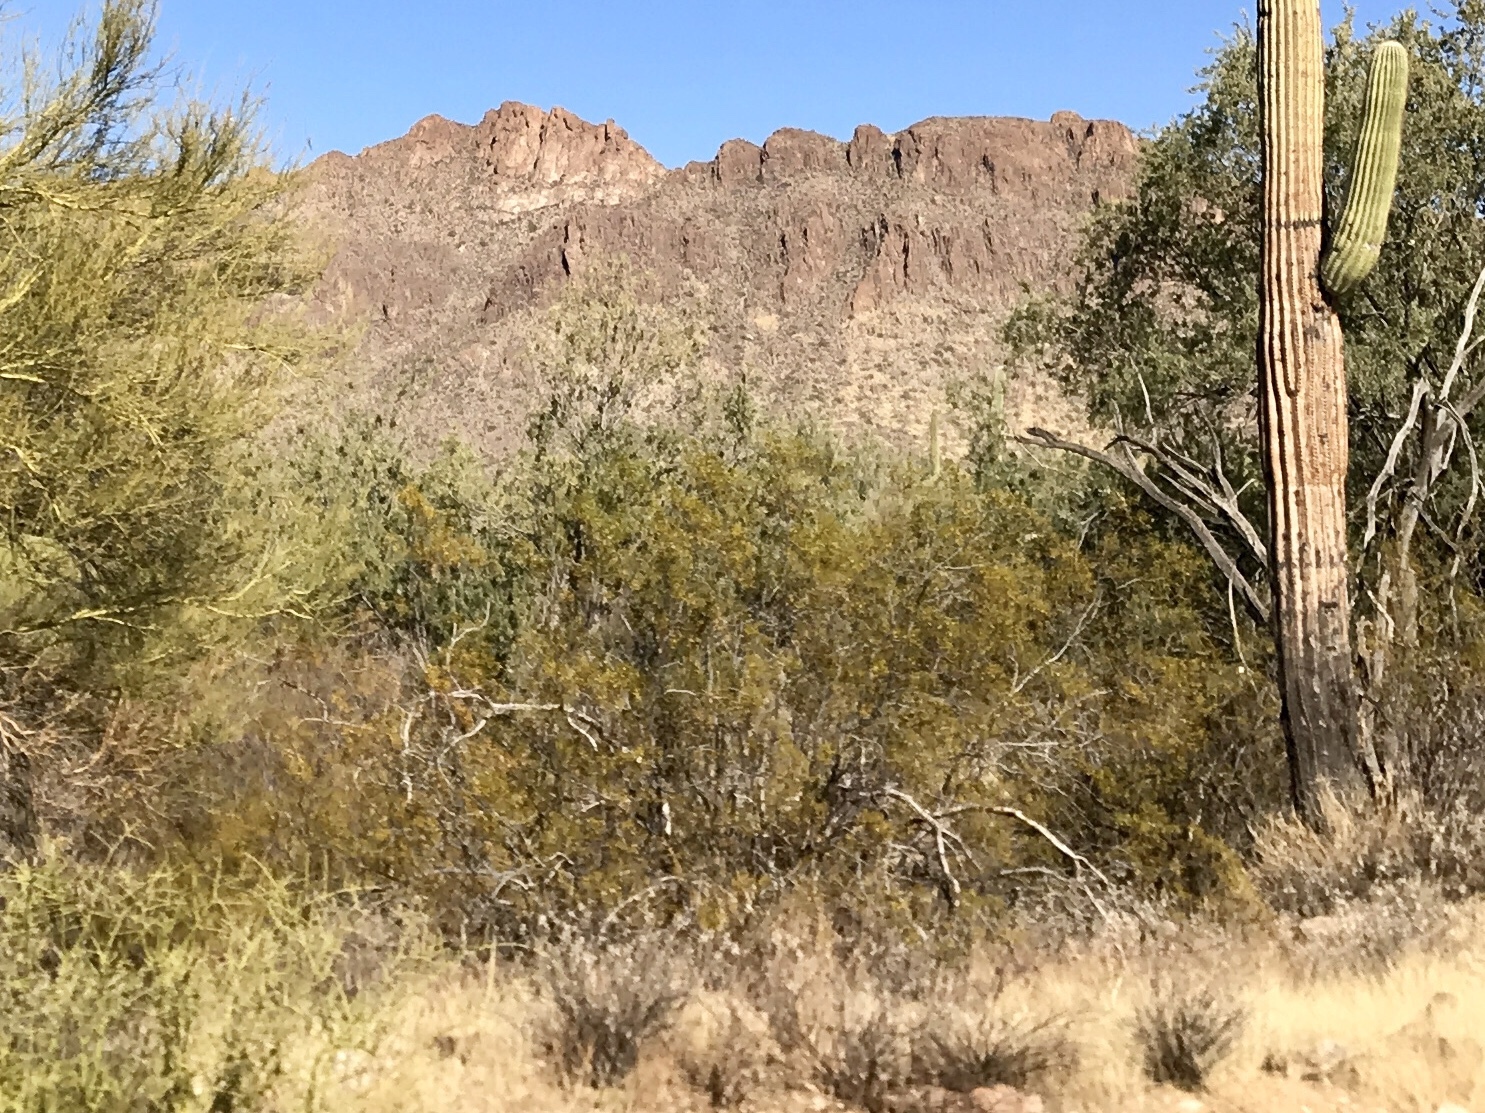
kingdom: Plantae
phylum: Tracheophyta
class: Magnoliopsida
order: Zygophyllales
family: Zygophyllaceae
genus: Larrea
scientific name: Larrea tridentata
